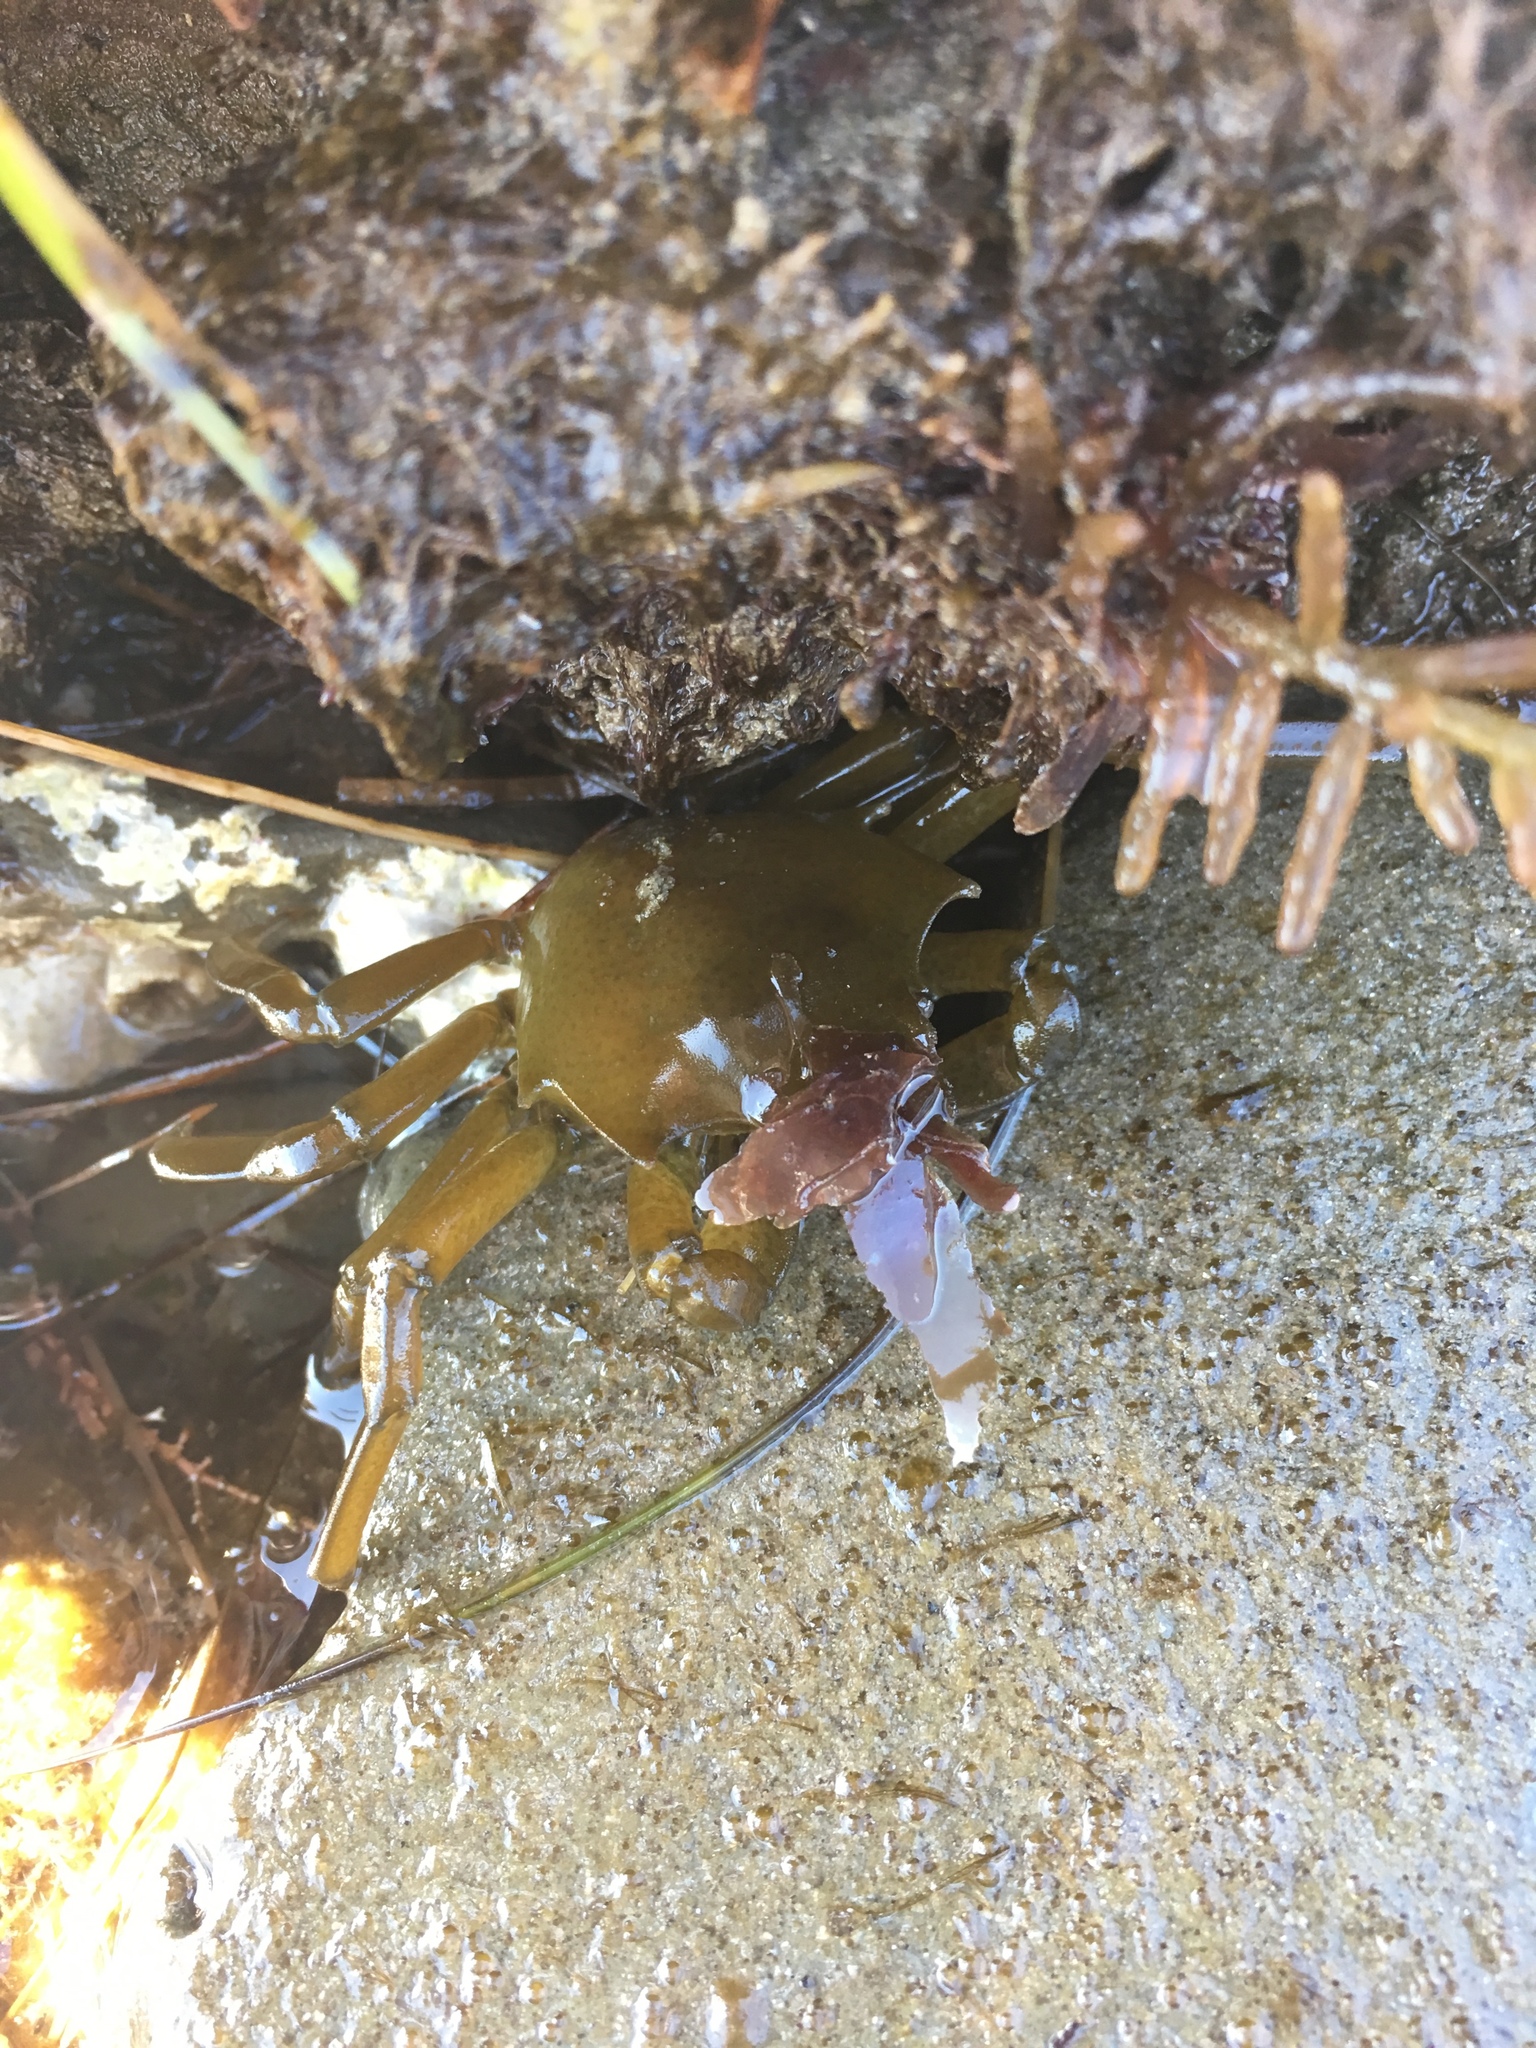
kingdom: Animalia
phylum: Arthropoda
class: Malacostraca
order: Decapoda
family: Epialtidae
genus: Pugettia
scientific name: Pugettia producta
